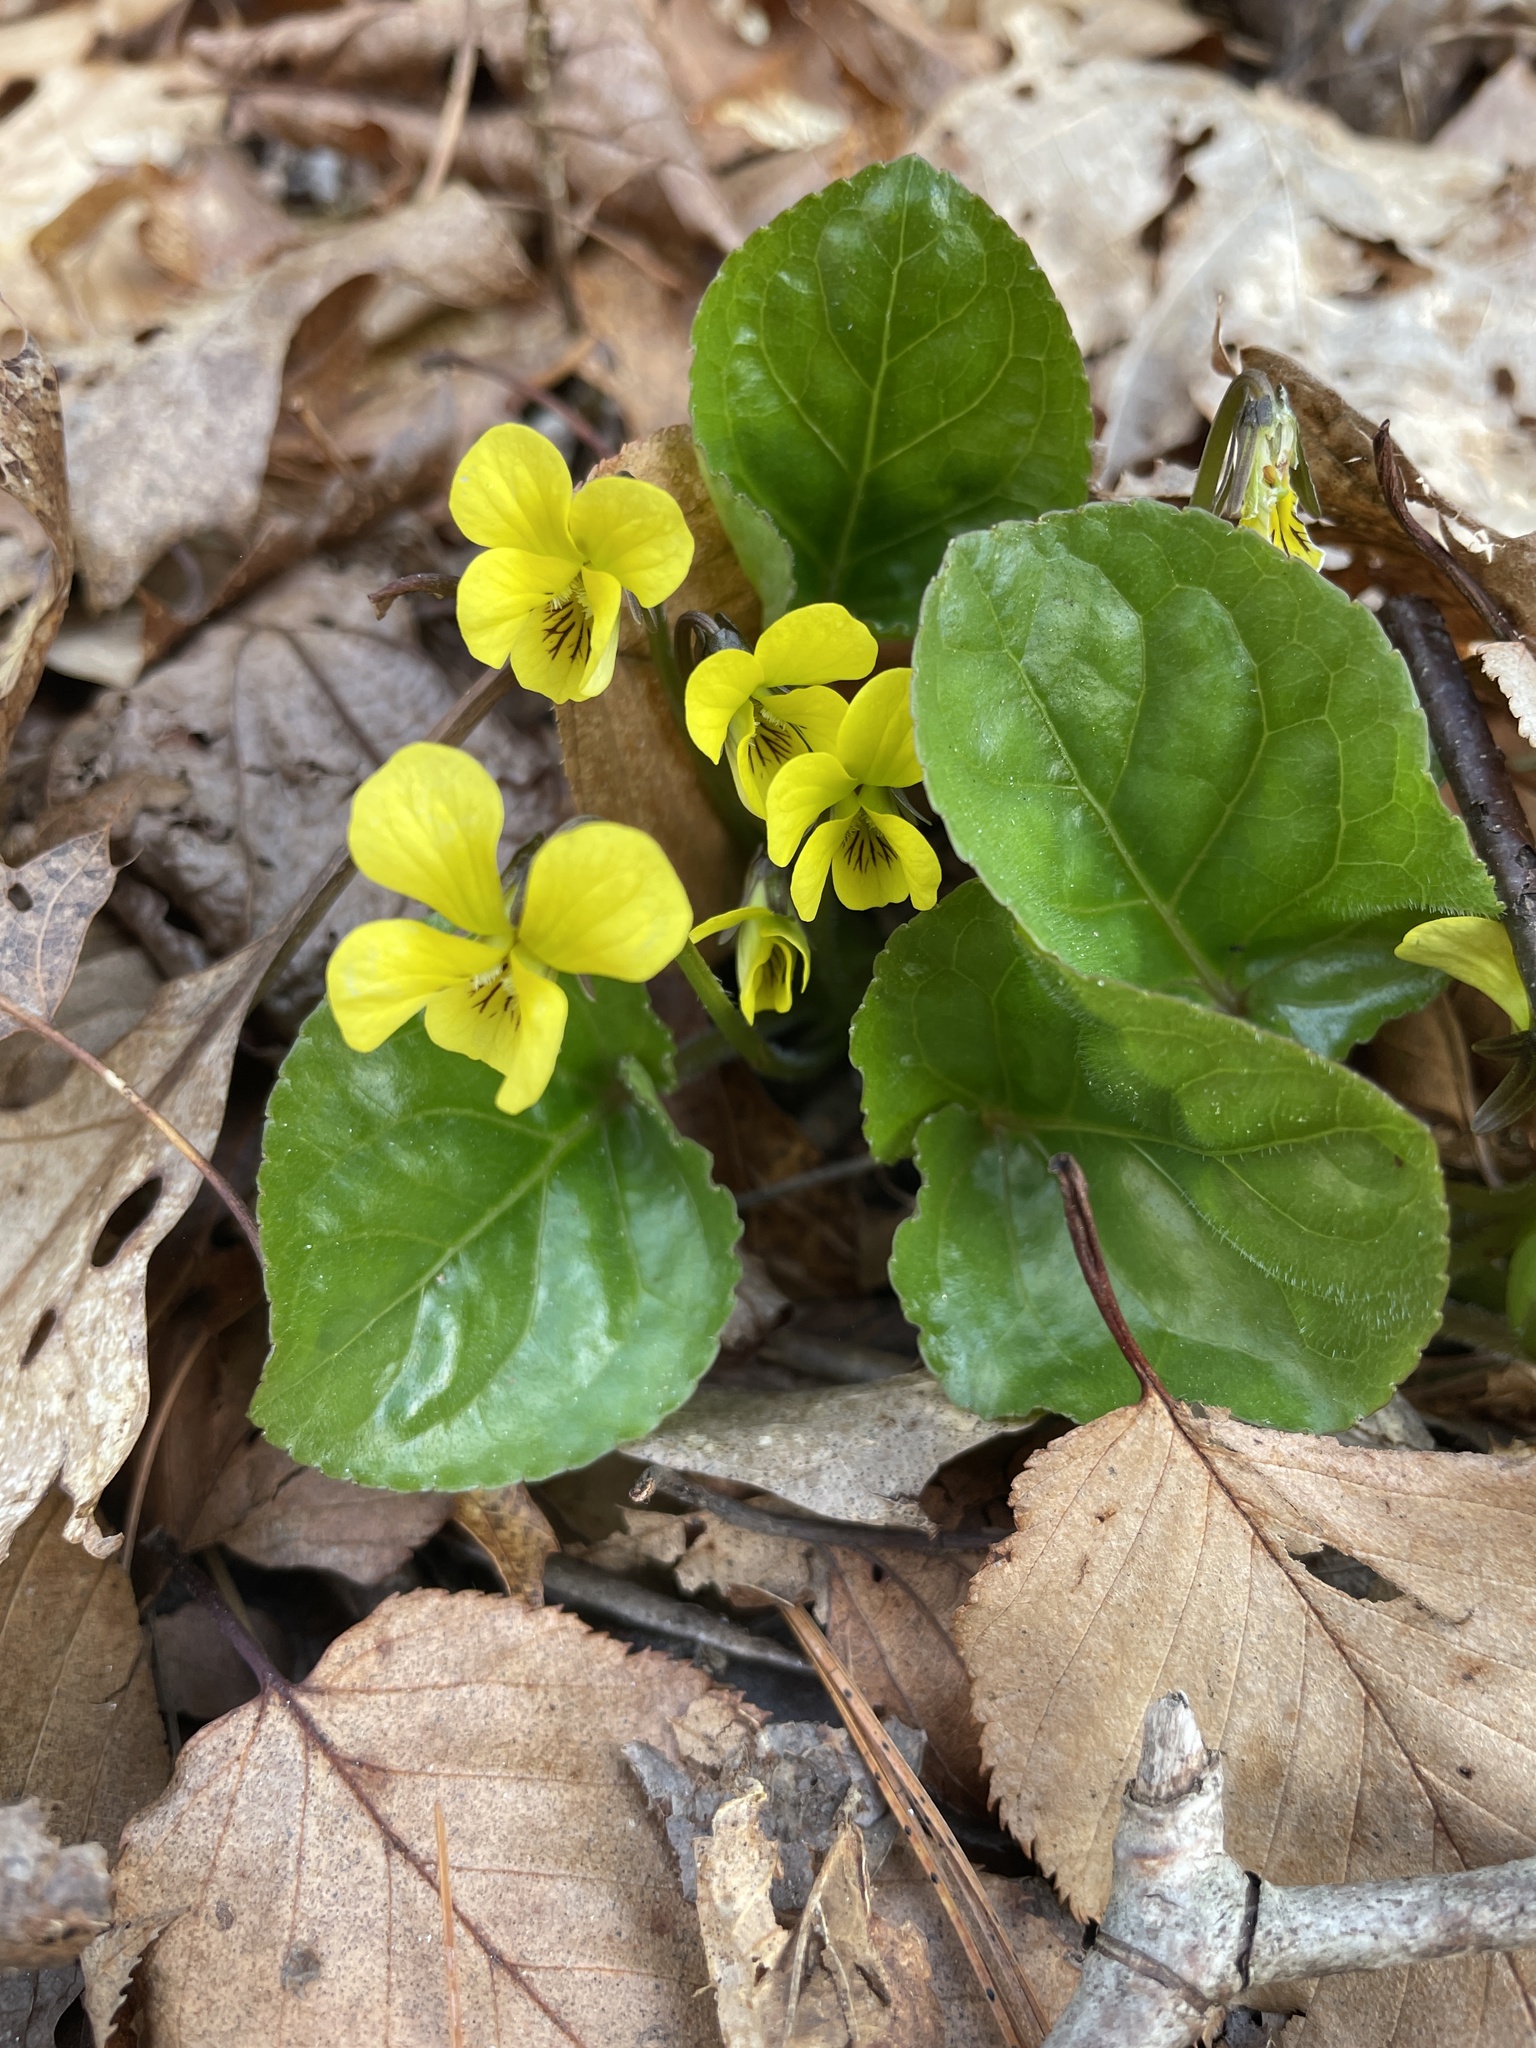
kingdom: Plantae
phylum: Tracheophyta
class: Magnoliopsida
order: Malpighiales
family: Violaceae
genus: Viola
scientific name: Viola rotundifolia
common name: Early yellow violet
